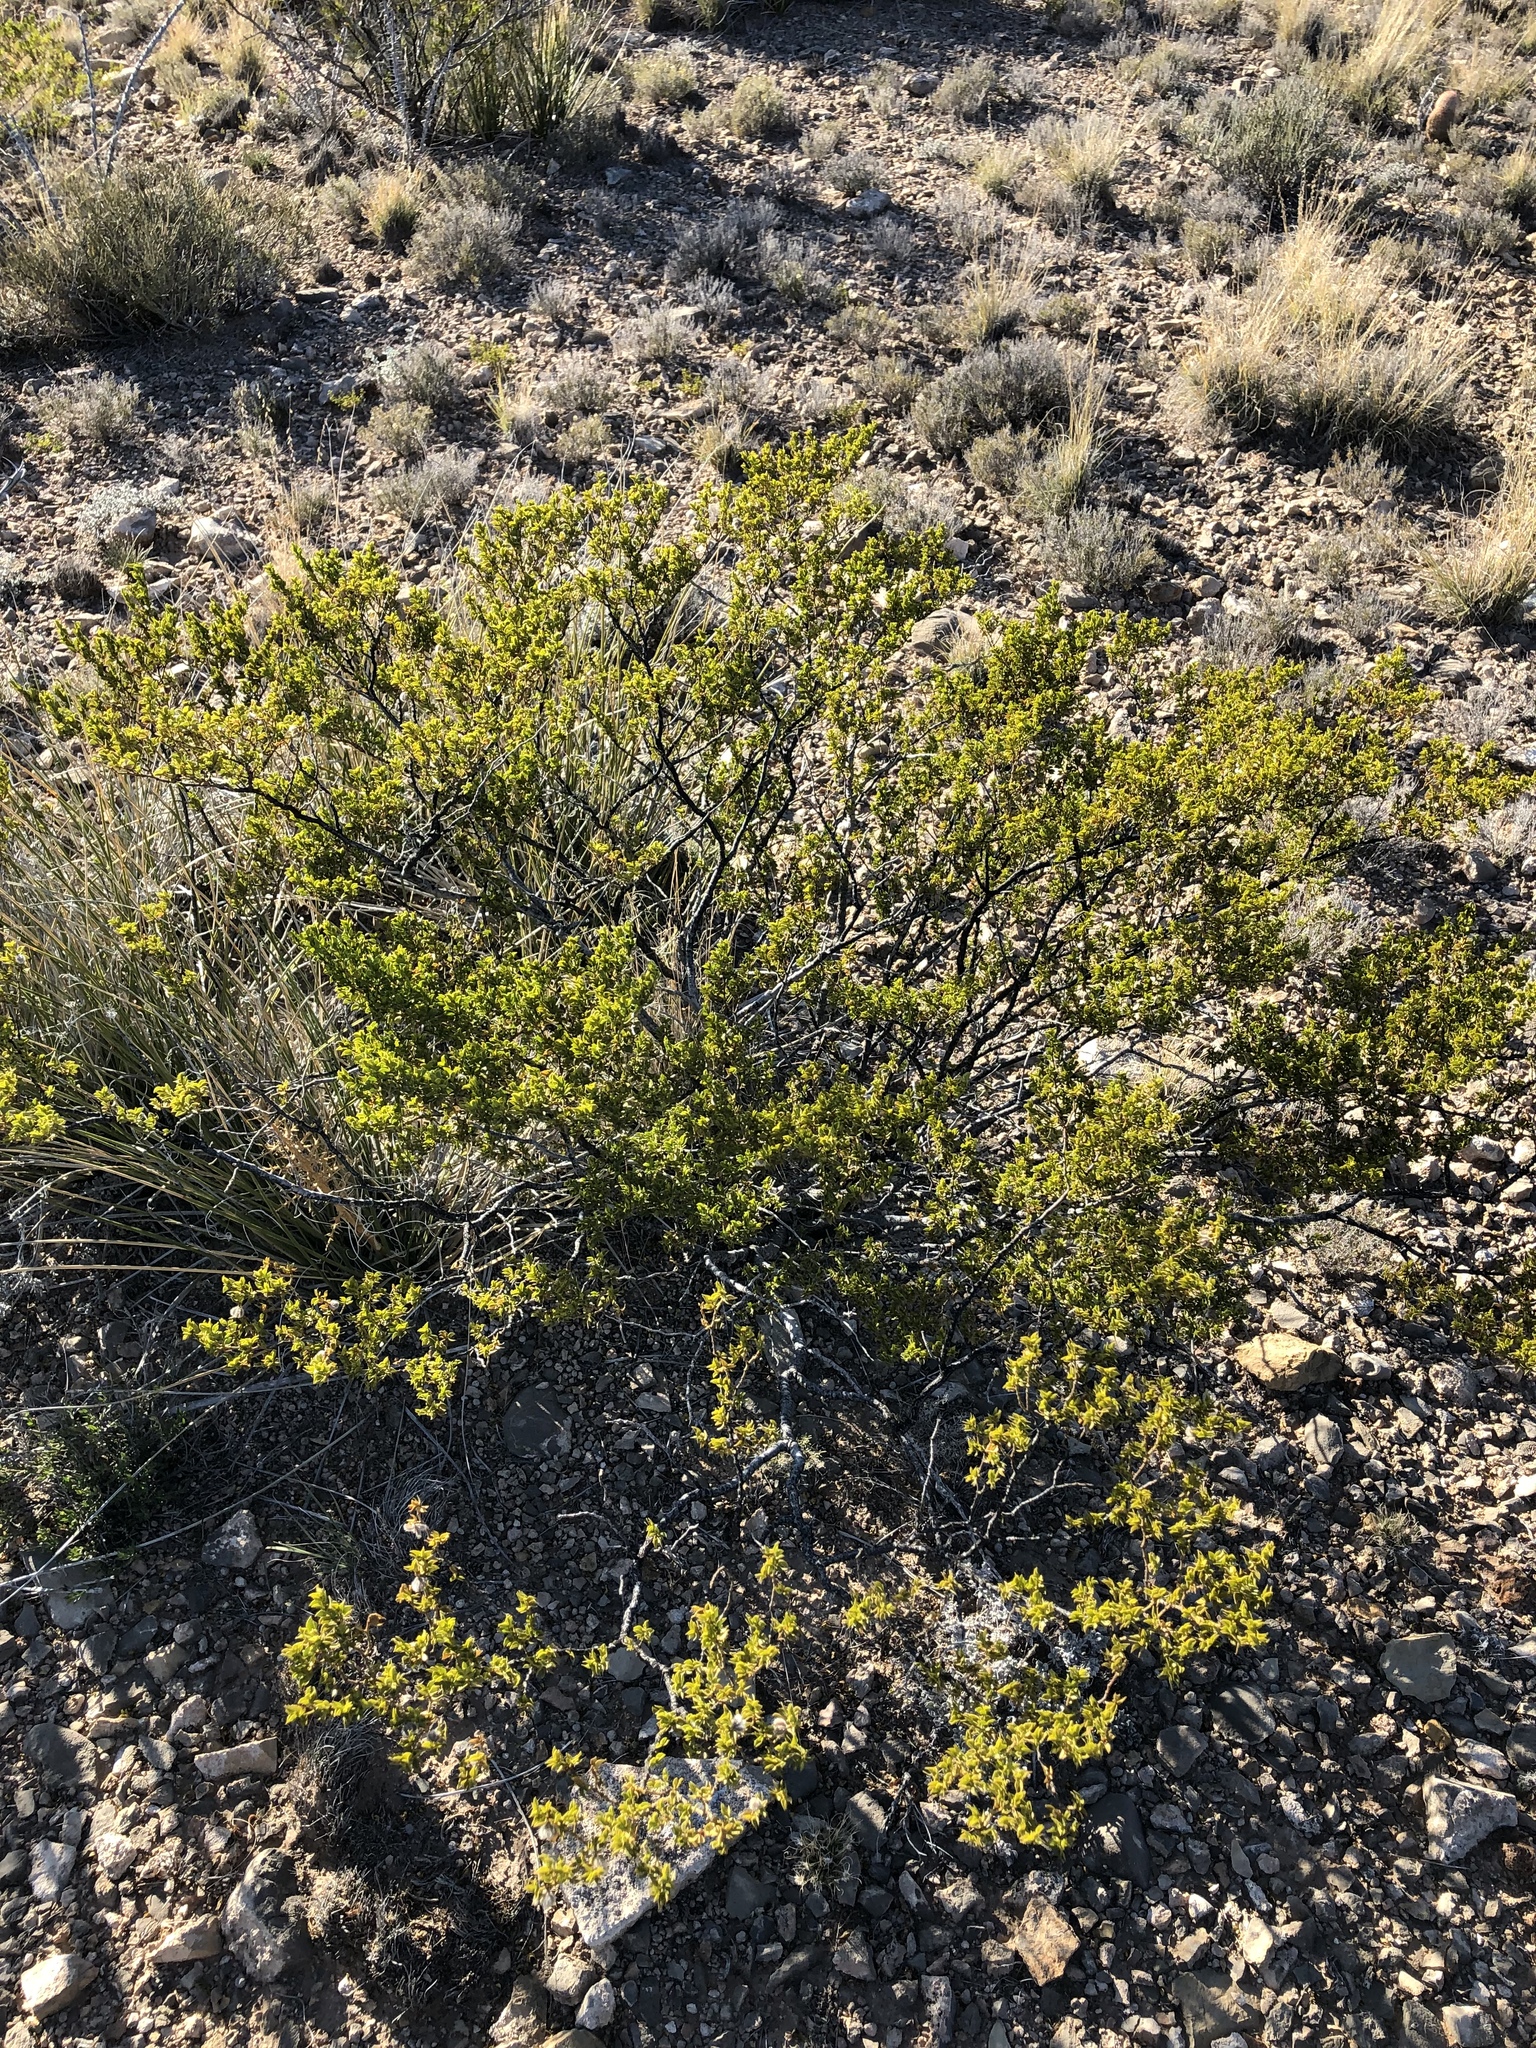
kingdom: Plantae
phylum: Tracheophyta
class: Magnoliopsida
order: Zygophyllales
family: Zygophyllaceae
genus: Larrea
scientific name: Larrea tridentata
